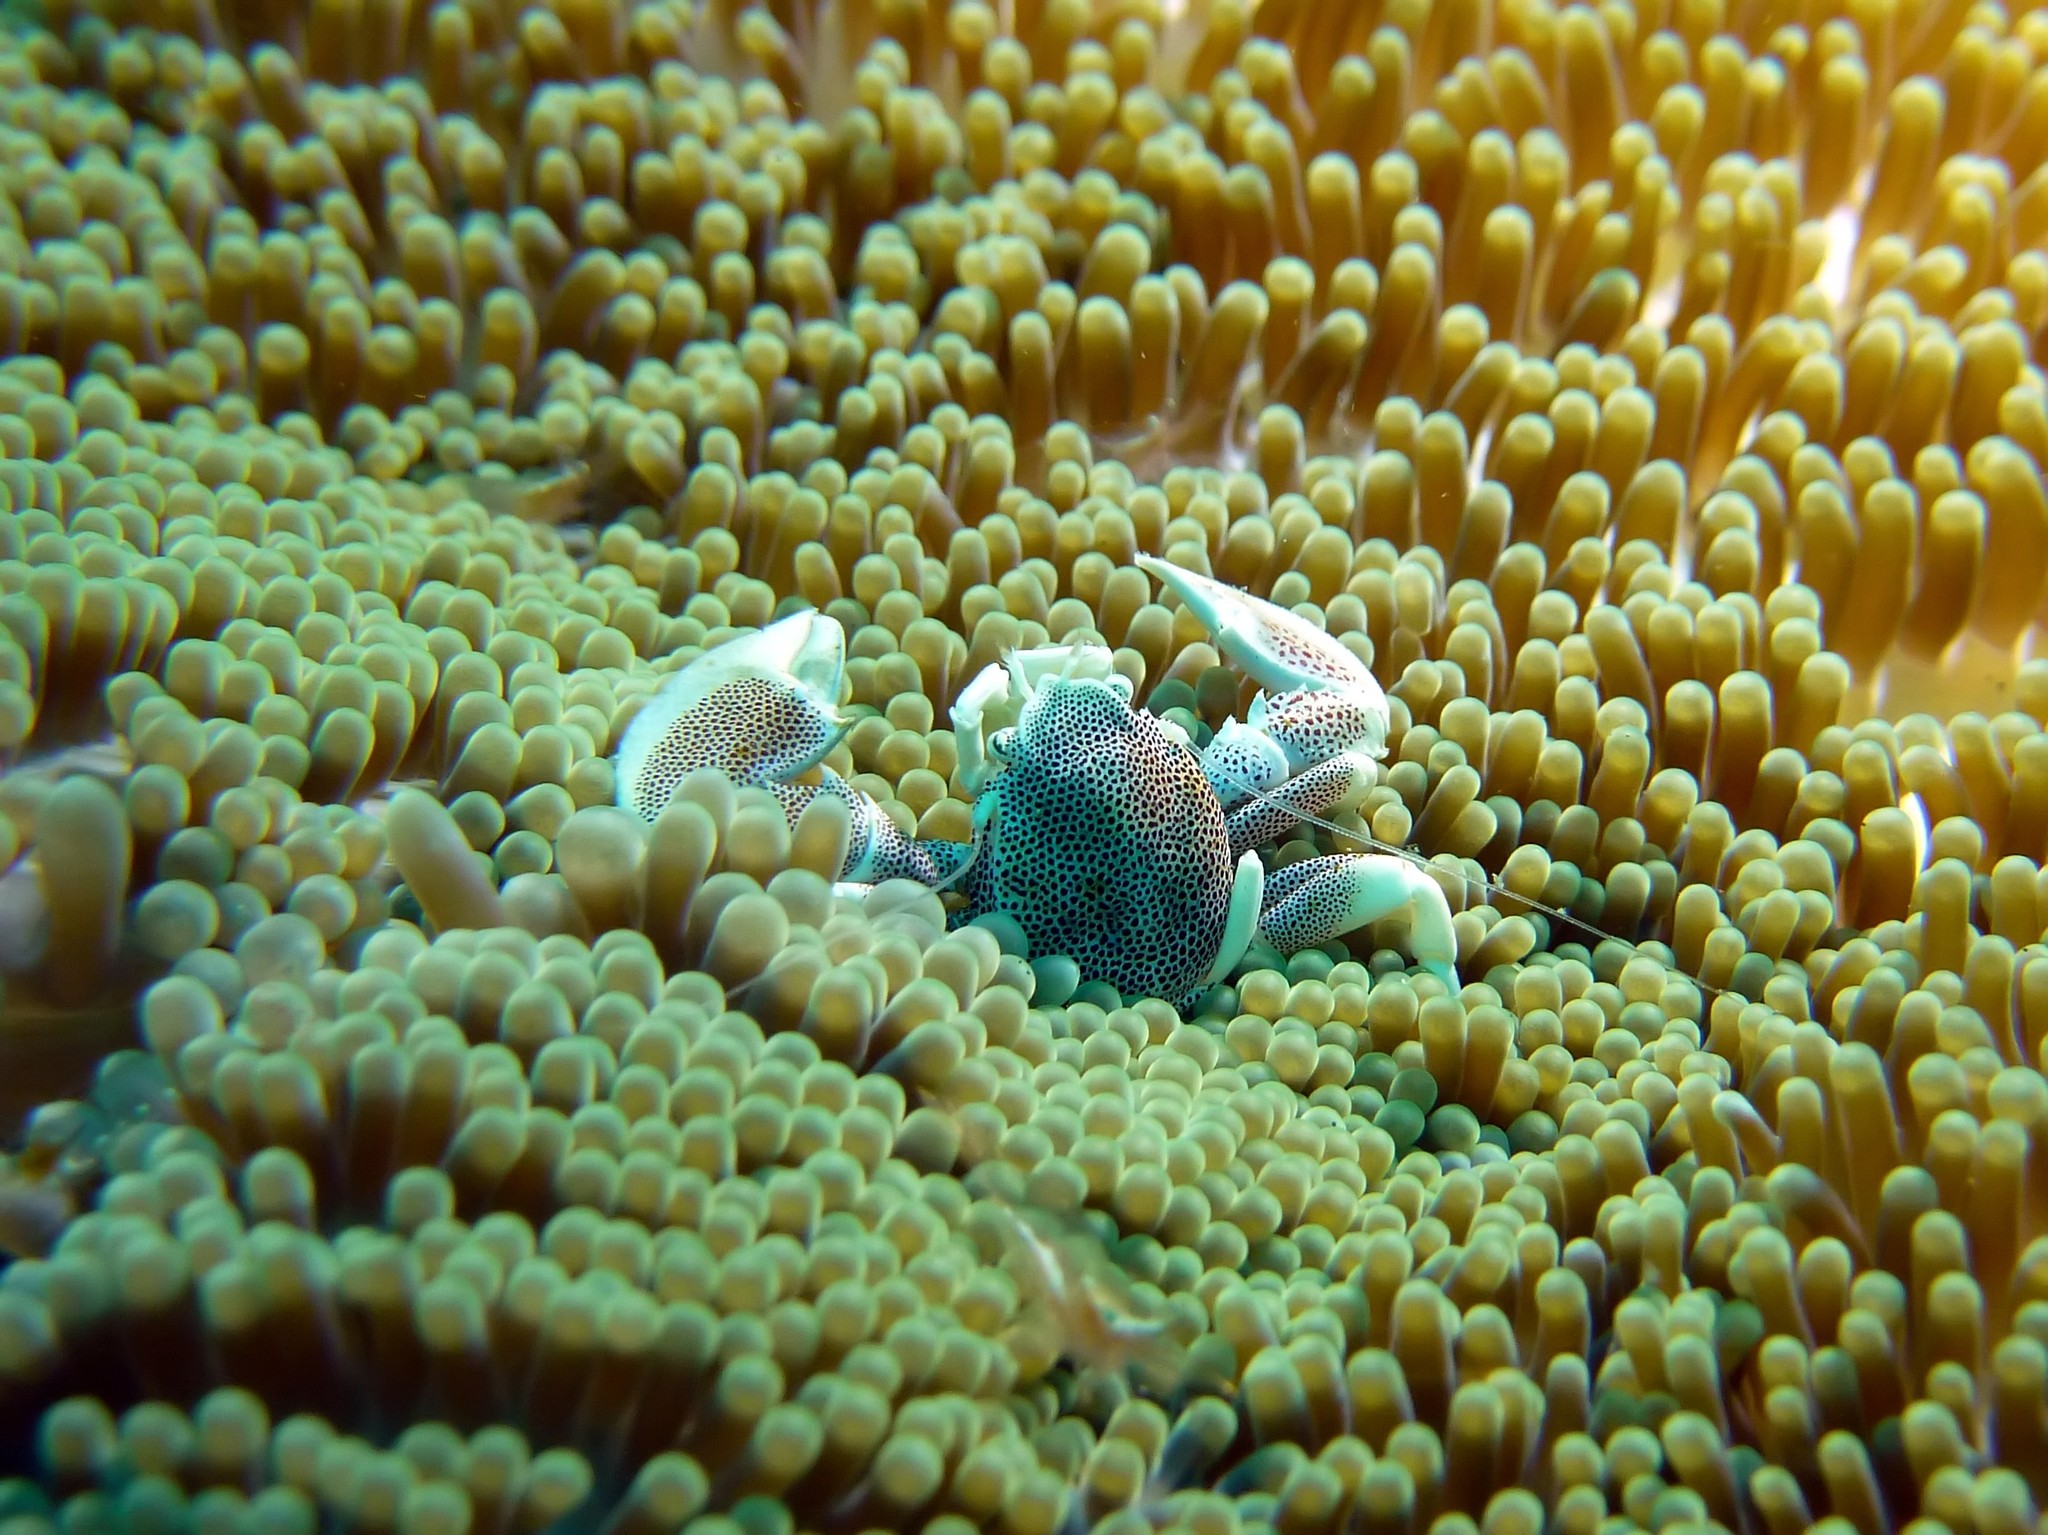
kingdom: Animalia
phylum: Arthropoda
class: Malacostraca
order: Decapoda
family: Porcellanidae
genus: Neopetrolisthes
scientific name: Neopetrolisthes maculatus
